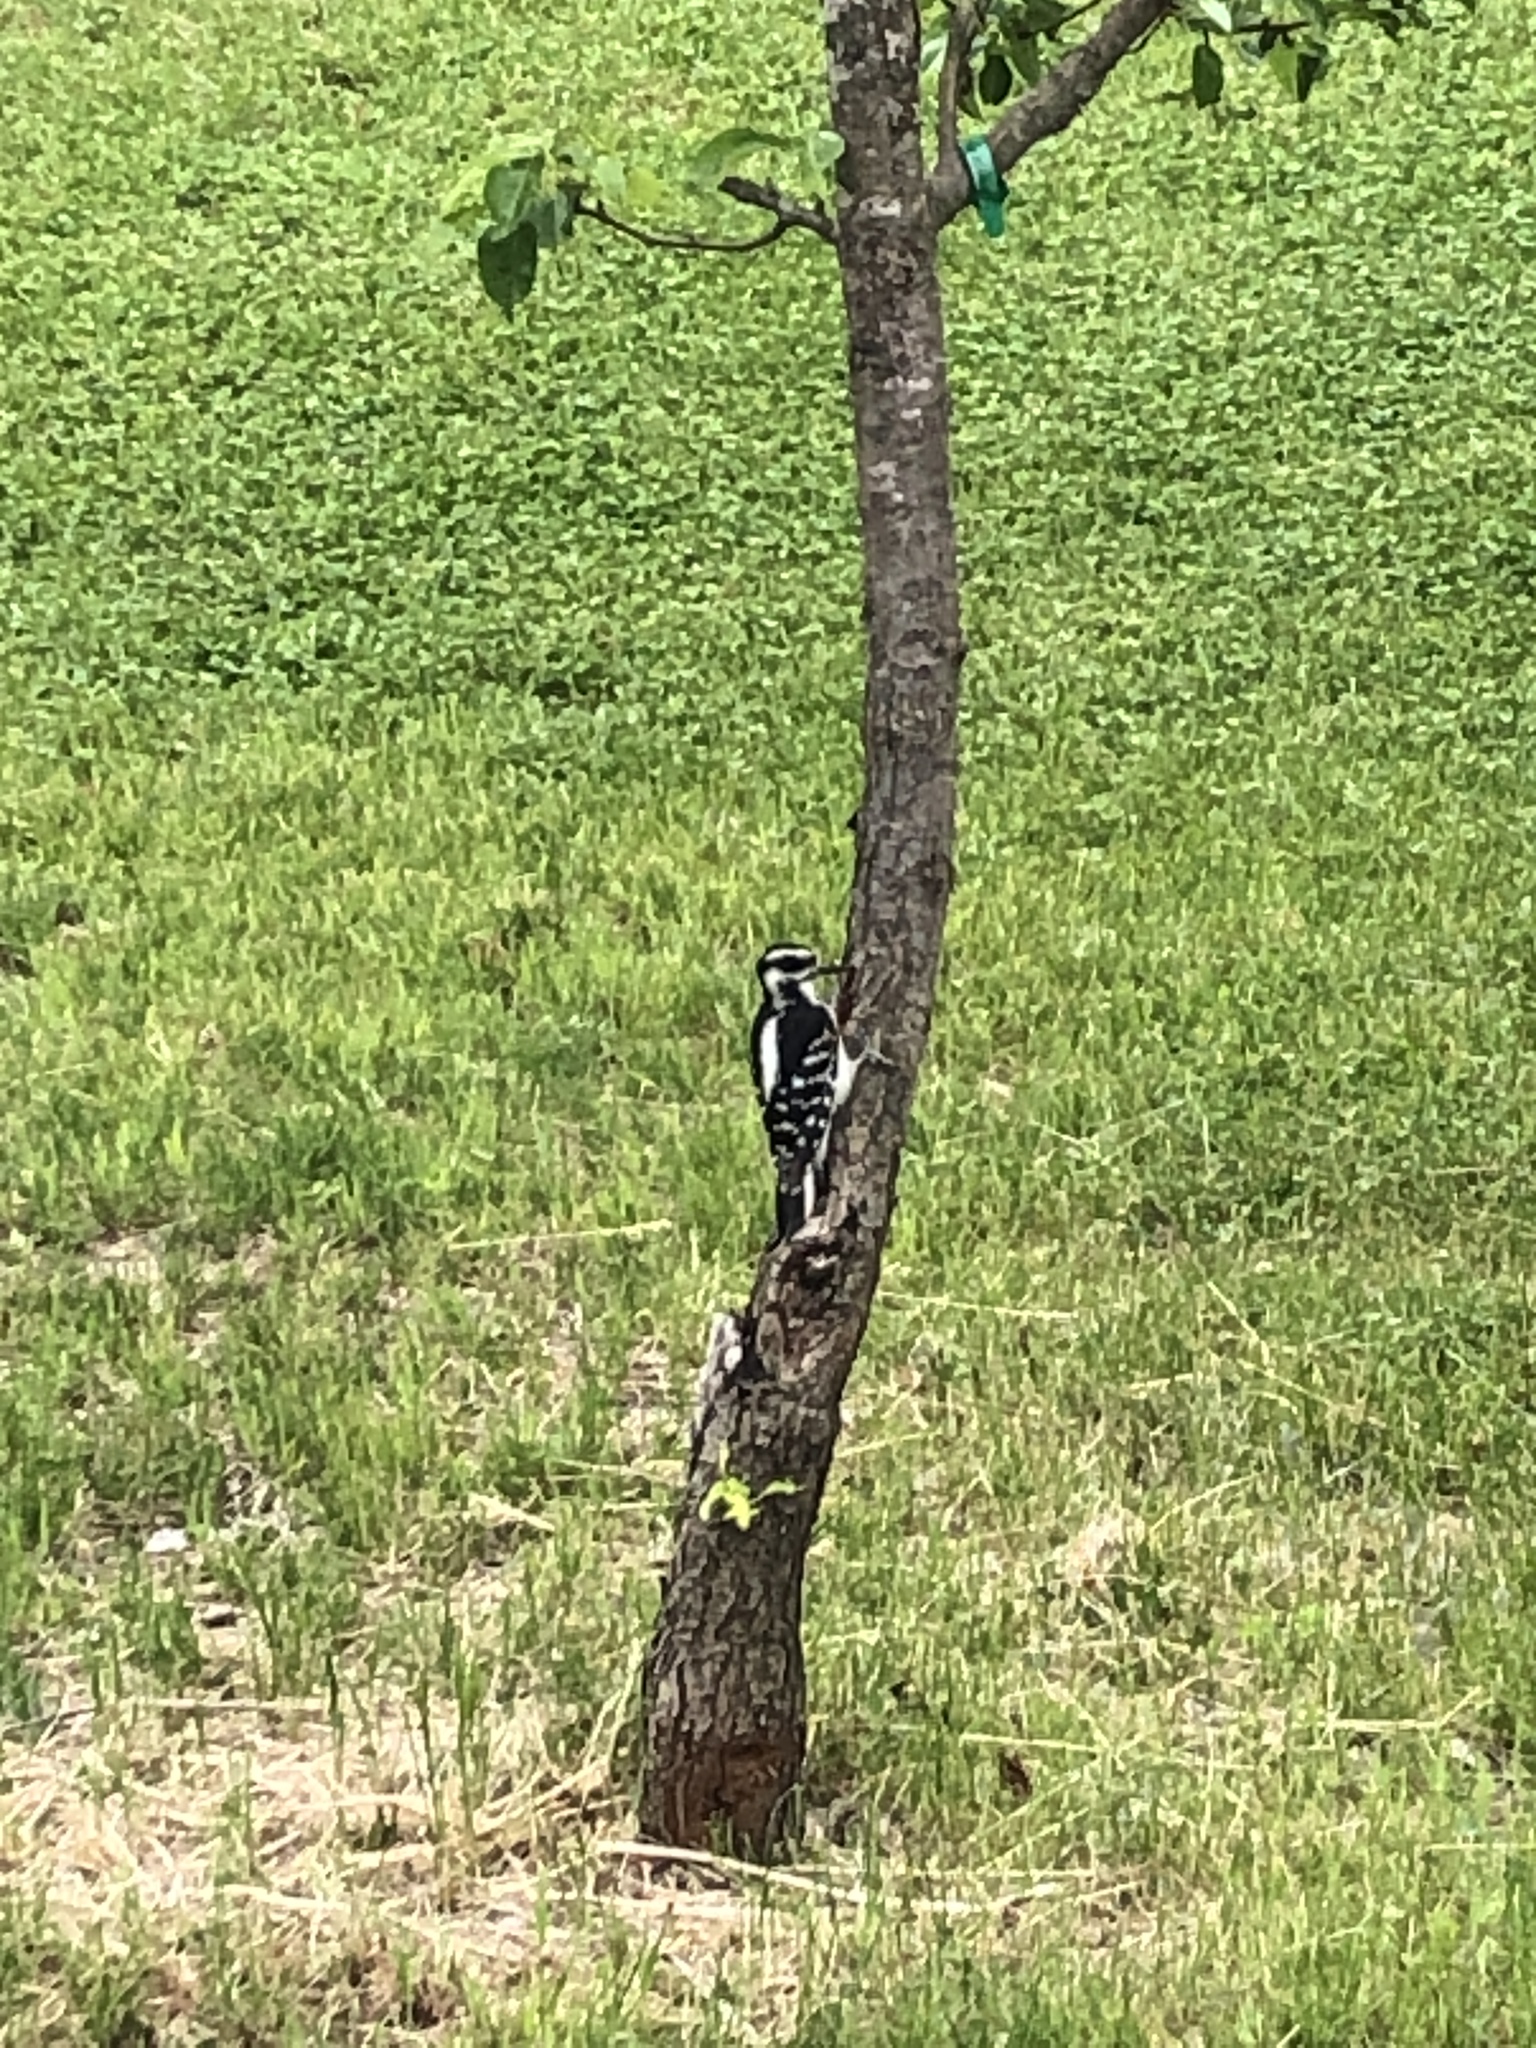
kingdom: Animalia
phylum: Chordata
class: Aves
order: Piciformes
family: Picidae
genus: Leuconotopicus
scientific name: Leuconotopicus villosus
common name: Hairy woodpecker
